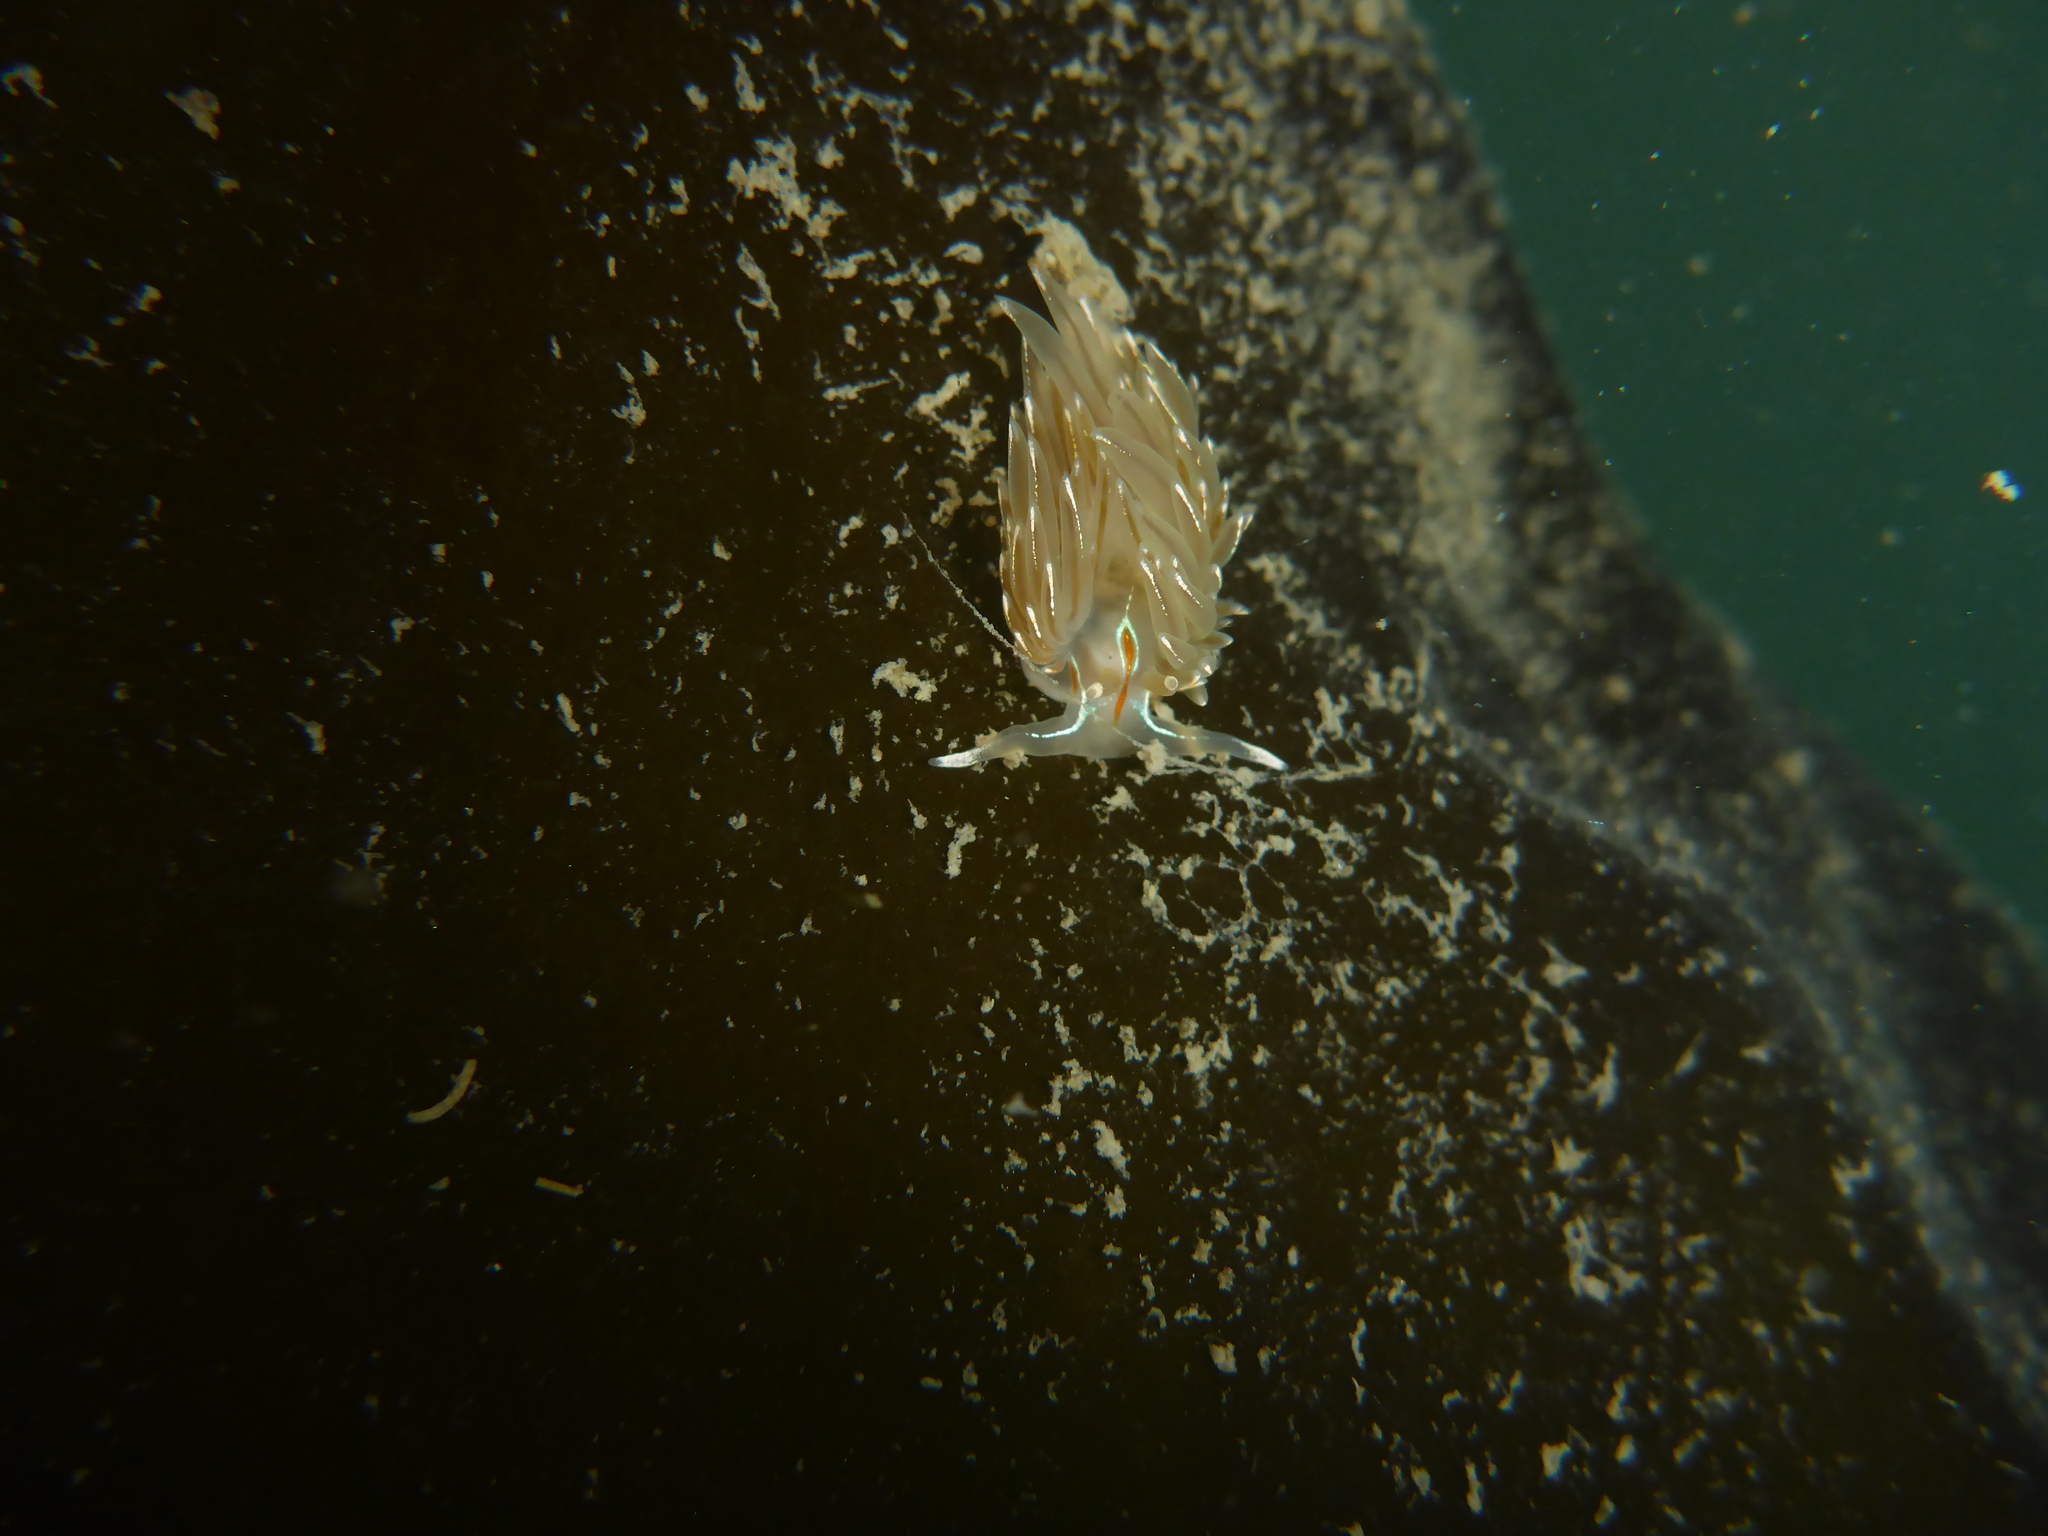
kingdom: Animalia
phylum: Mollusca
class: Gastropoda
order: Nudibranchia
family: Myrrhinidae
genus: Hermissenda
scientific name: Hermissenda crassicornis
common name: Hermissenda
